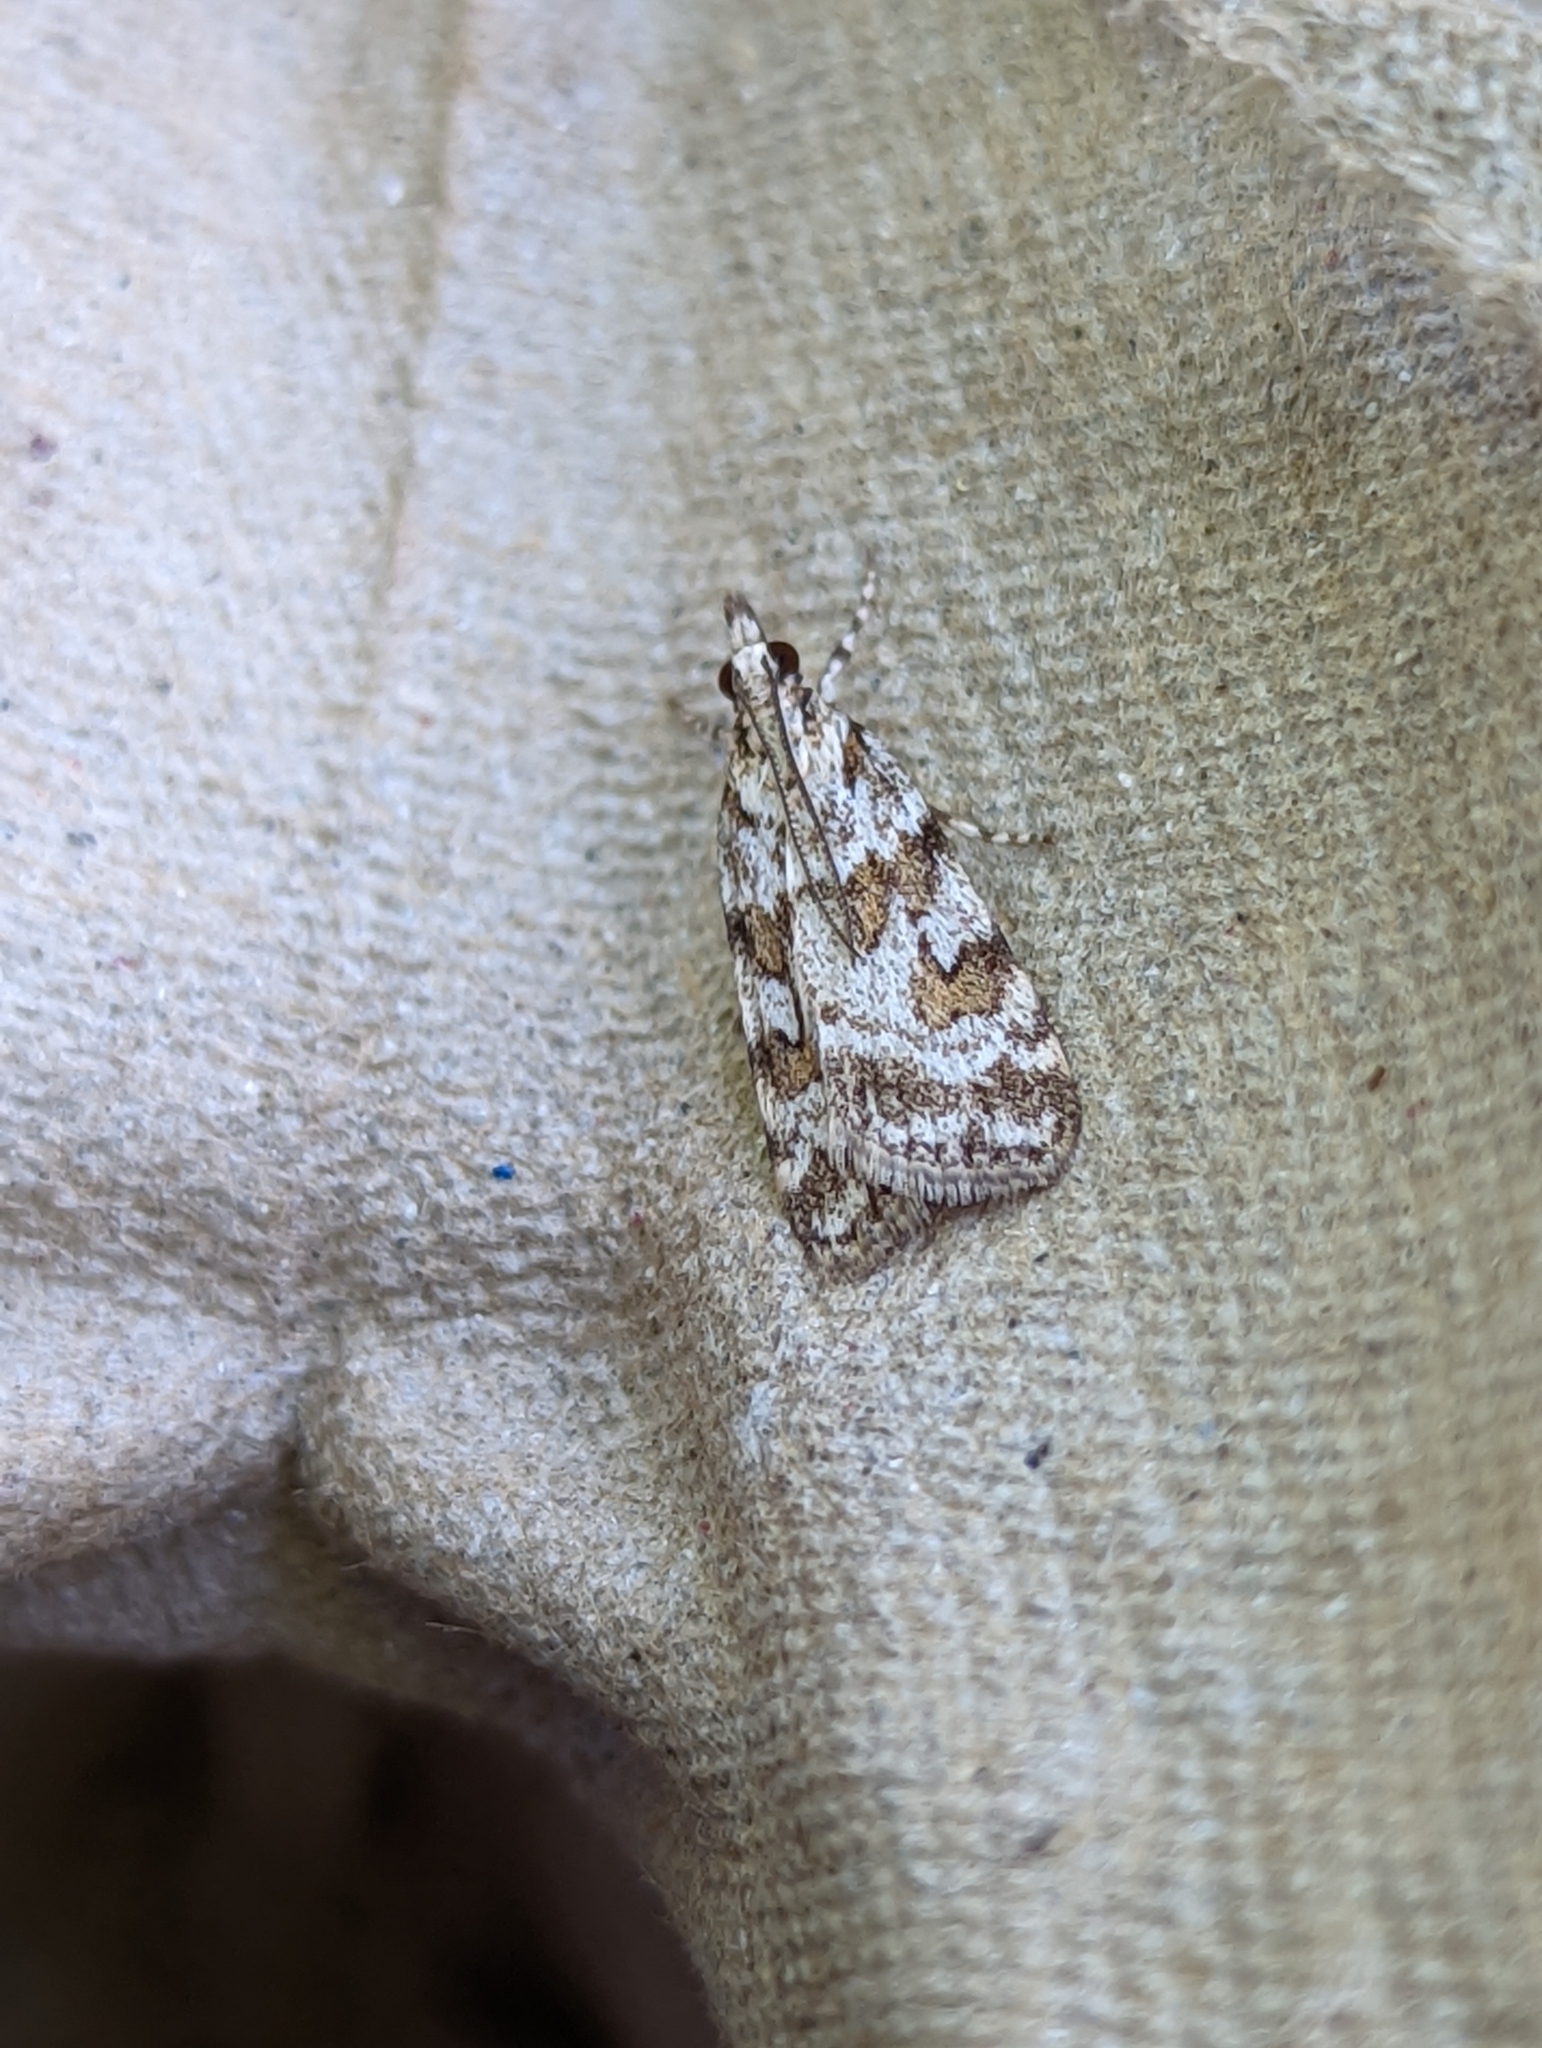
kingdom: Animalia
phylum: Arthropoda
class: Insecta
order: Lepidoptera
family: Crambidae
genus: Scoparia
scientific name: Scoparia pyralella
